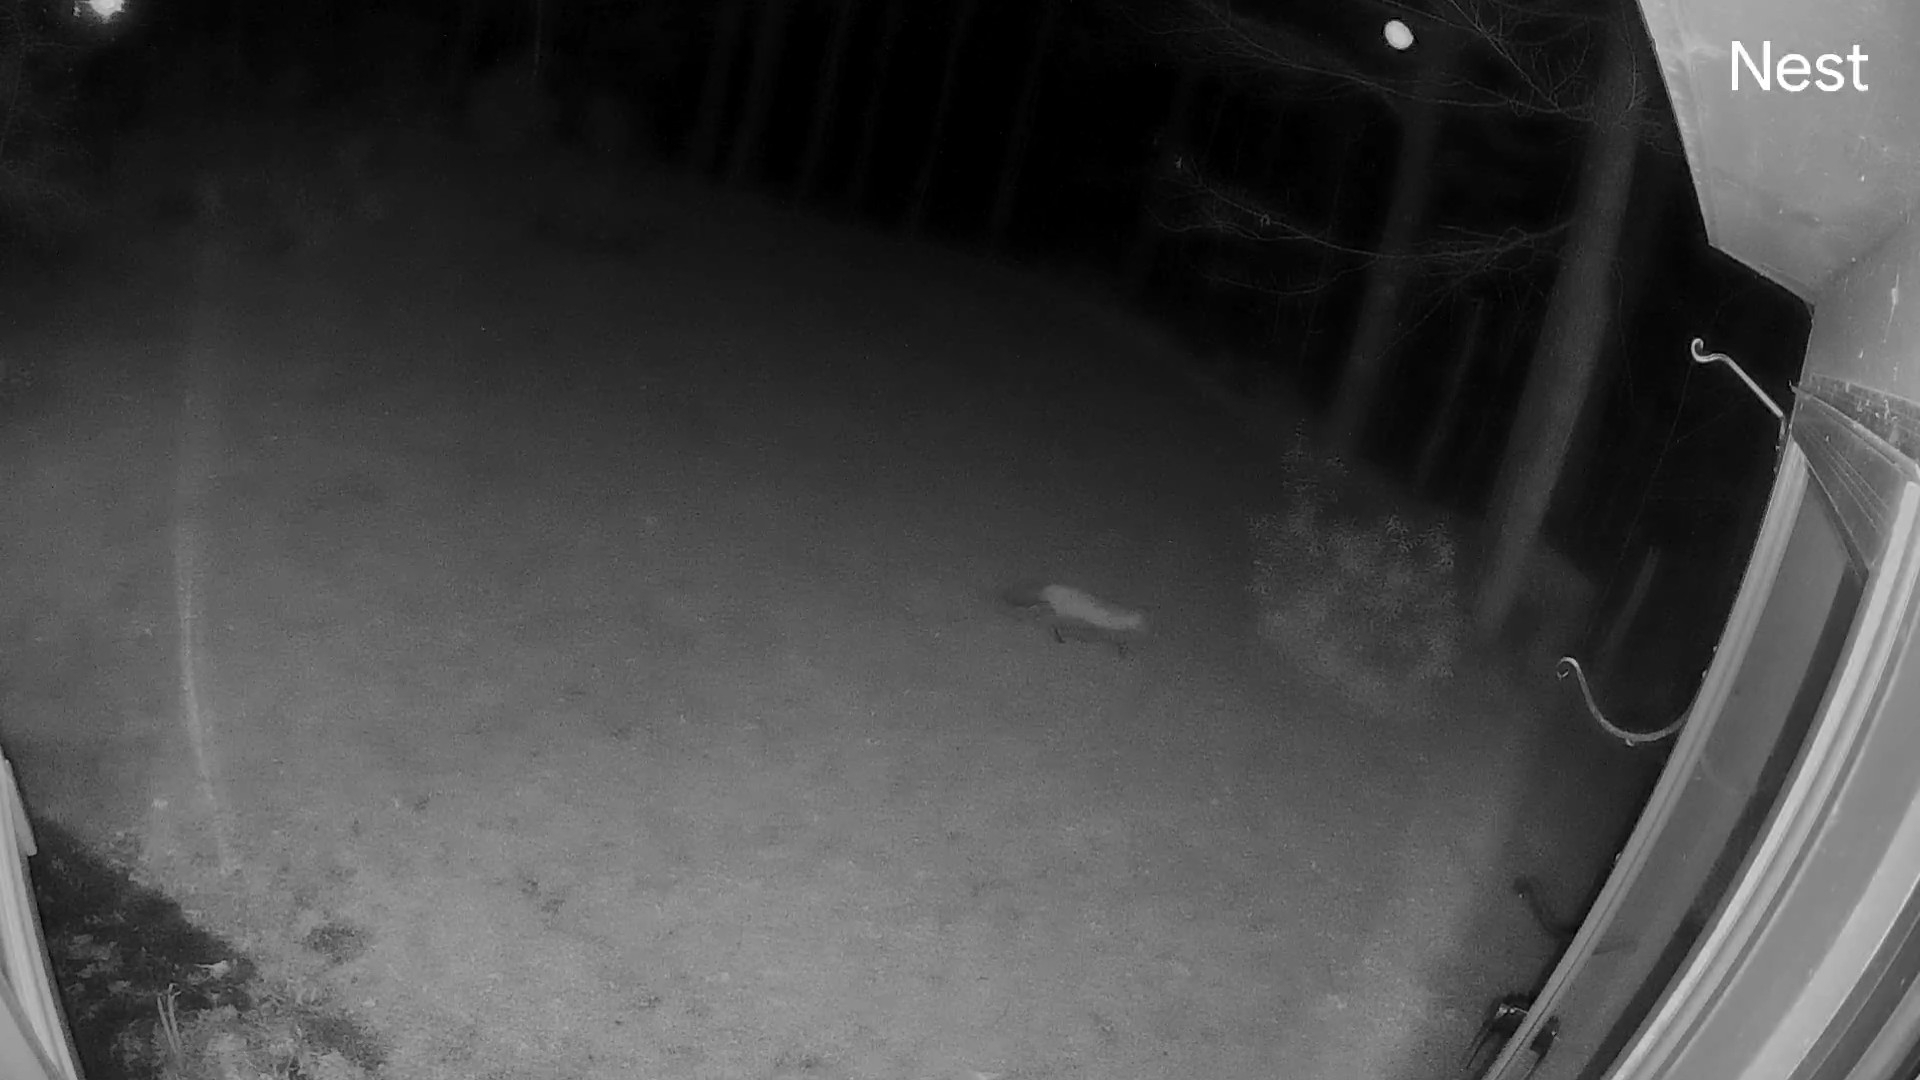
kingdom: Animalia
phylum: Chordata
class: Mammalia
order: Carnivora
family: Canidae
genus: Vulpes
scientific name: Vulpes vulpes
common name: Red fox
